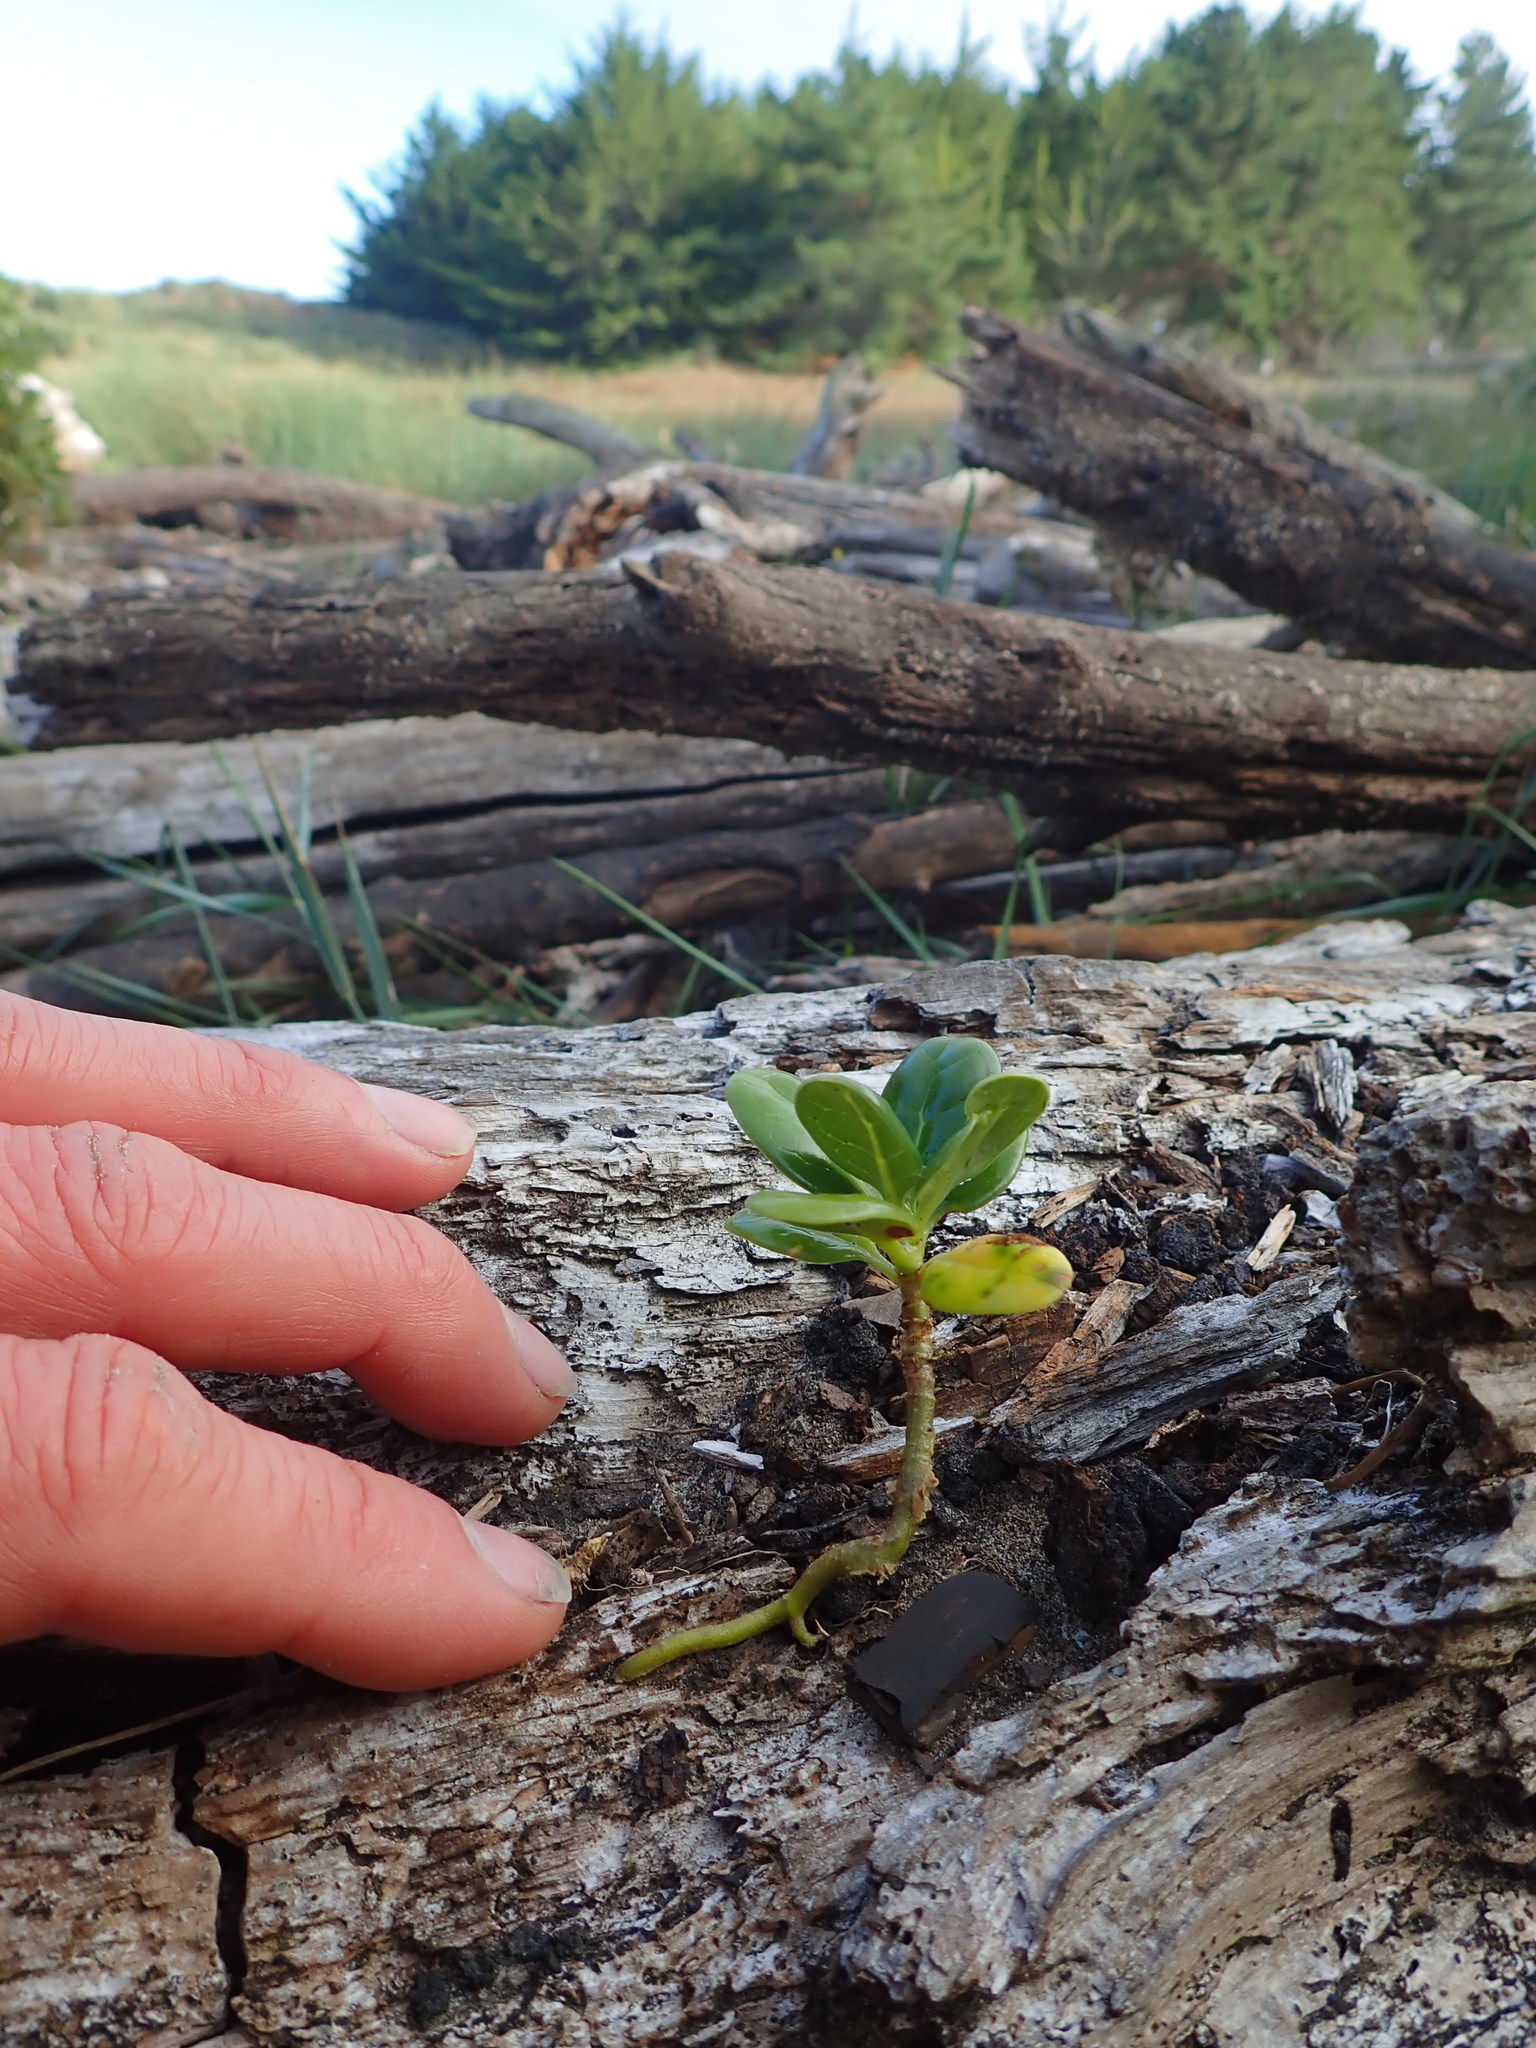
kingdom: Plantae
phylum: Tracheophyta
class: Magnoliopsida
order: Gentianales
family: Rubiaceae
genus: Coprosma
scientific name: Coprosma repens
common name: Tree bedstraw
